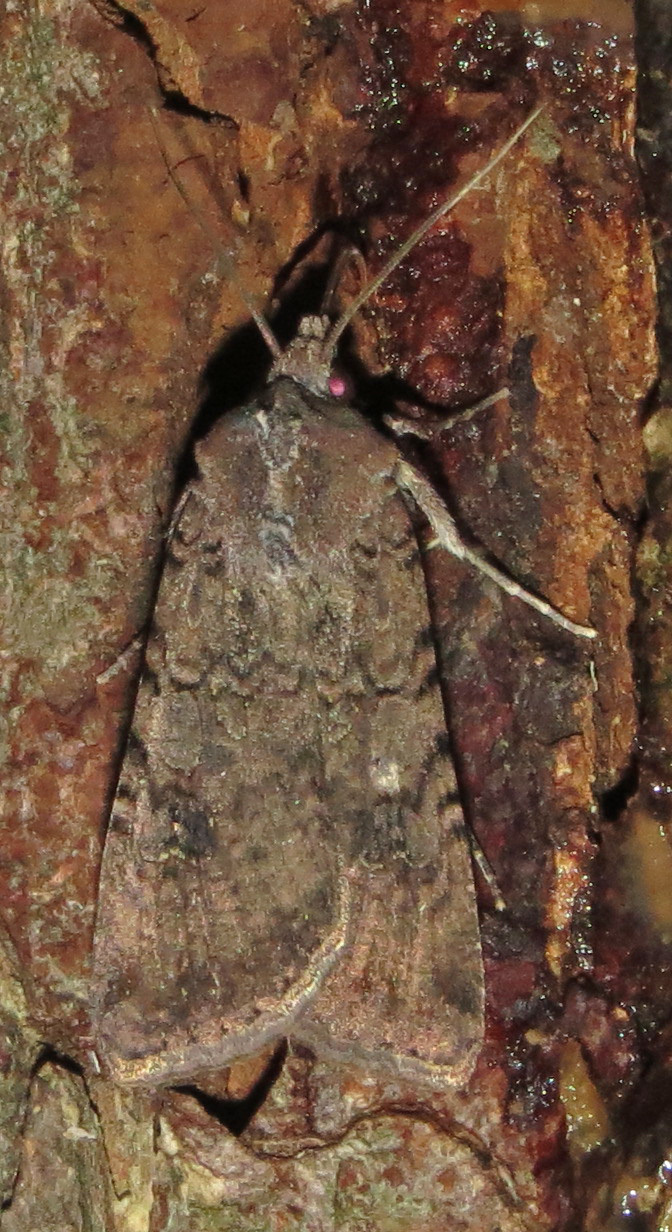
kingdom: Animalia
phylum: Arthropoda
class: Insecta
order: Lepidoptera
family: Noctuidae
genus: Peridroma
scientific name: Peridroma saucia
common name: Pearly underwing
